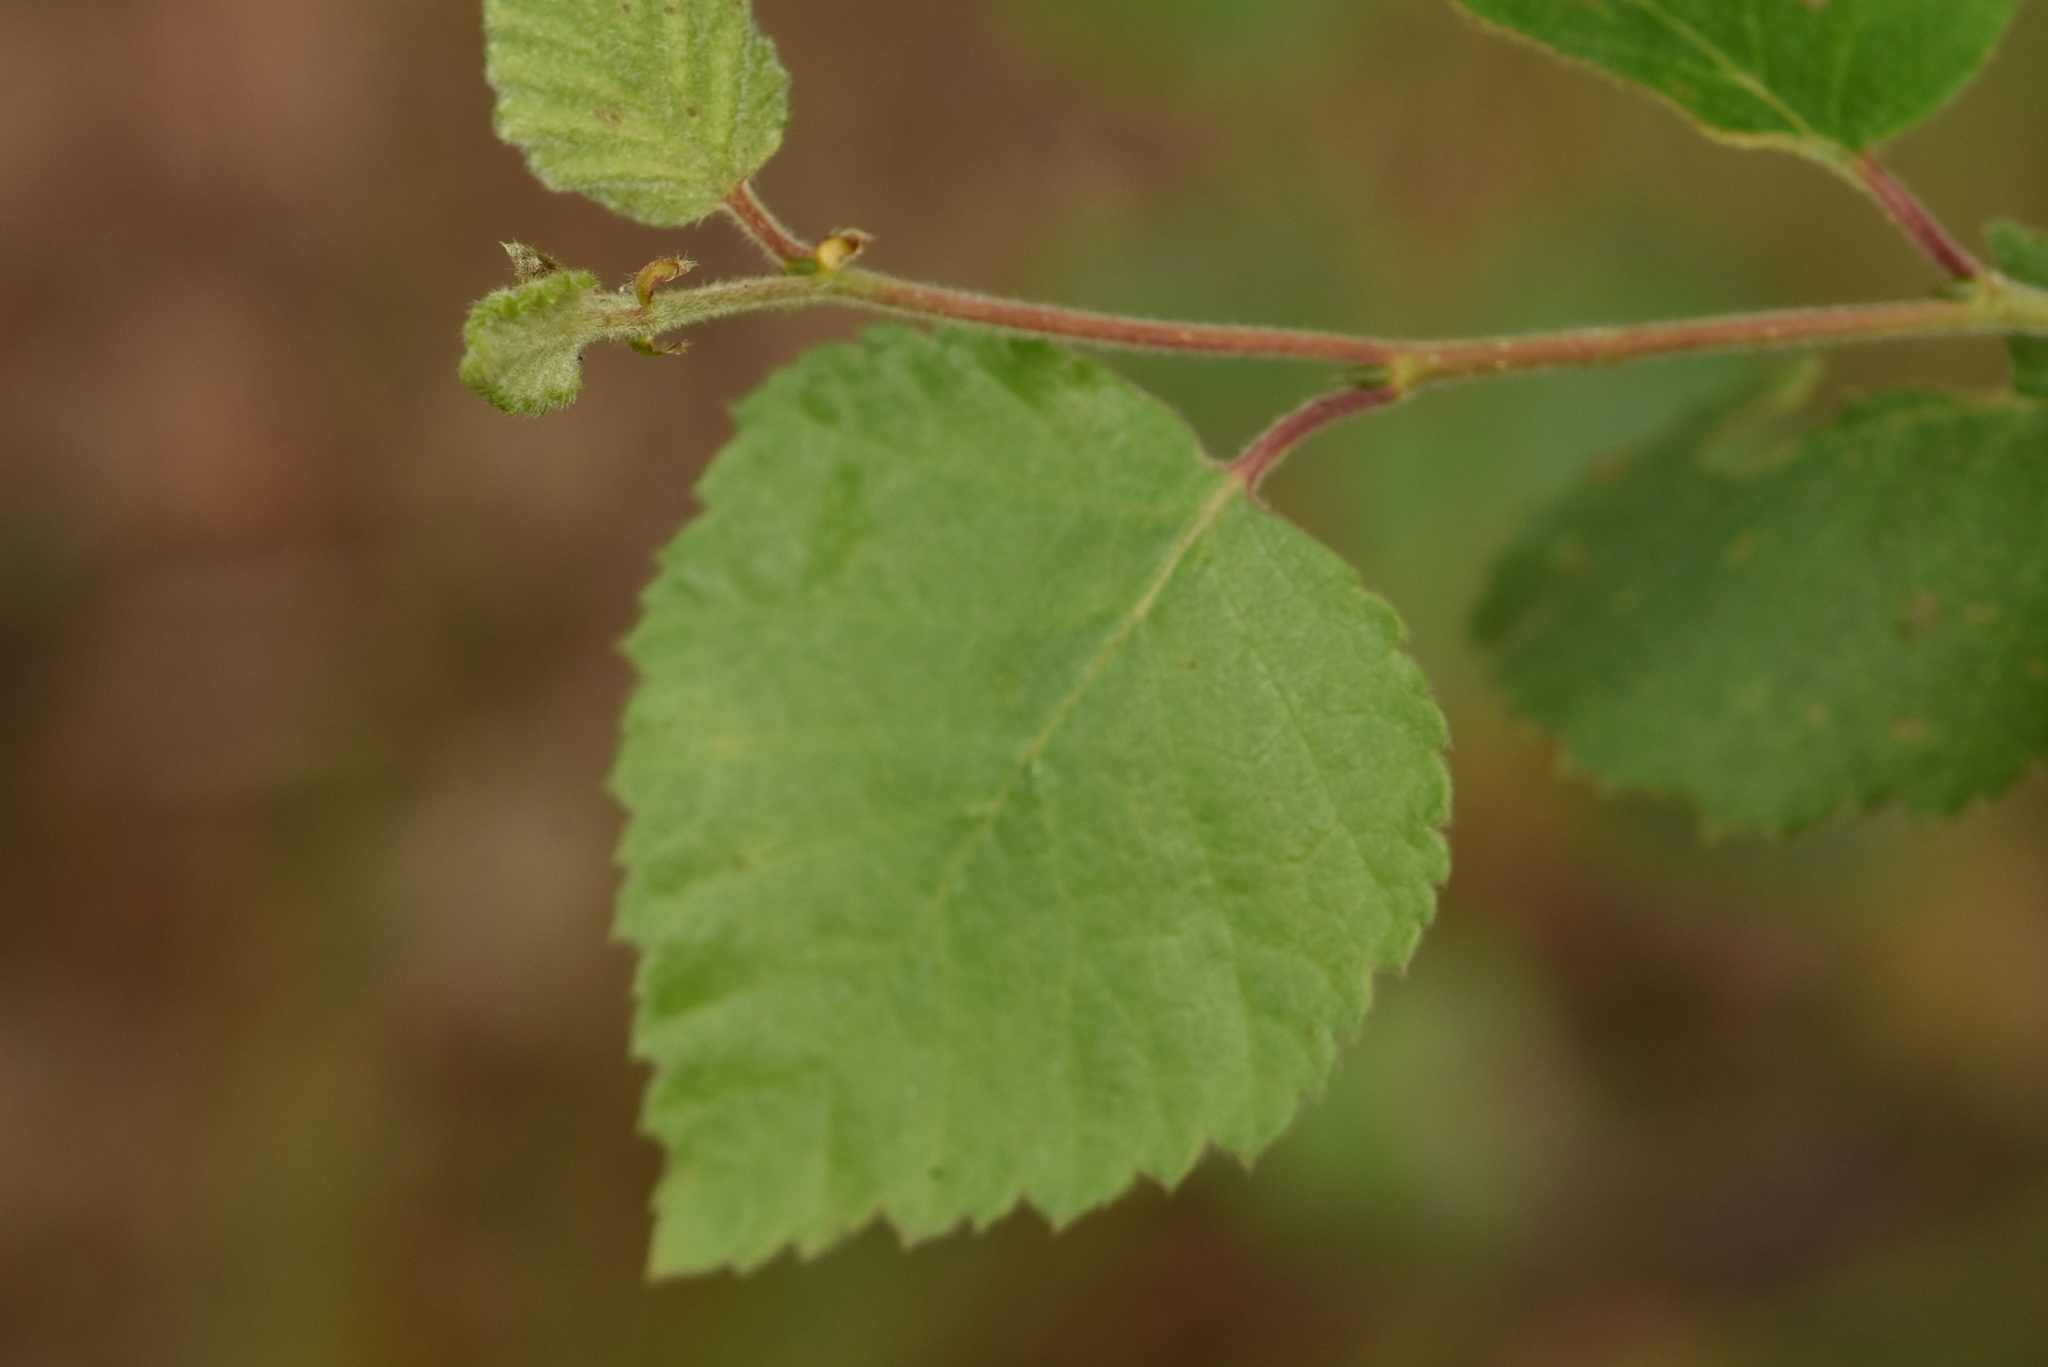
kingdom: Plantae
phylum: Tracheophyta
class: Magnoliopsida
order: Fagales
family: Betulaceae
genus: Betula
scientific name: Betula pubescens
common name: Downy birch
